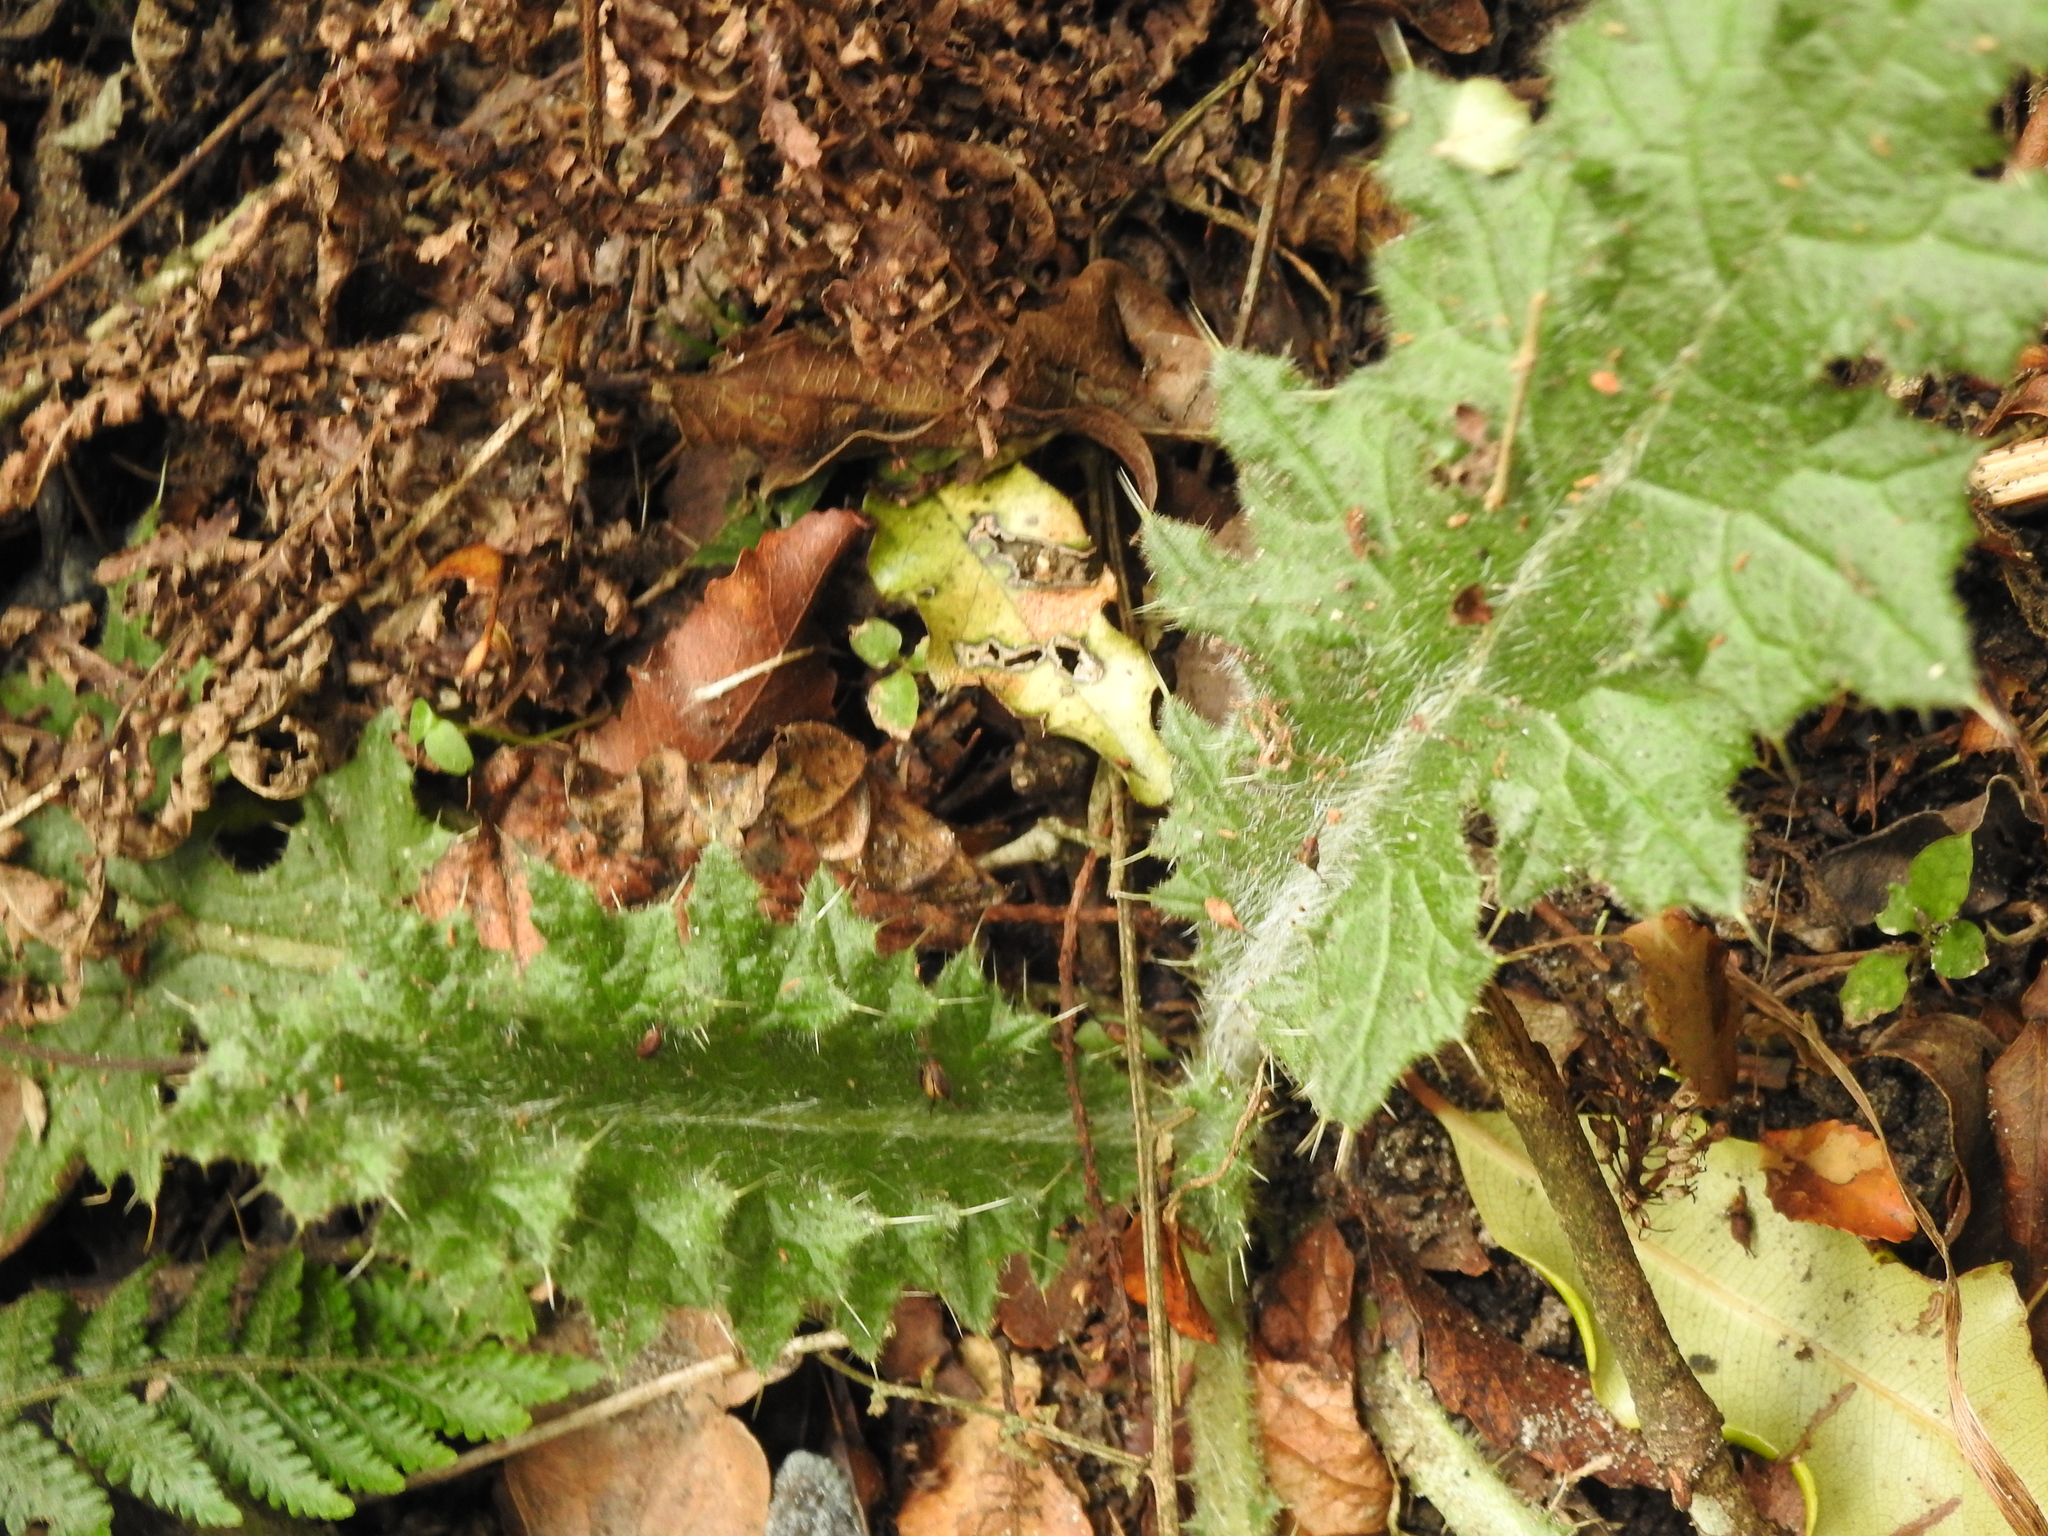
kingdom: Plantae
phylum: Tracheophyta
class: Magnoliopsida
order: Asterales
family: Asteraceae
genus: Cirsium
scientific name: Cirsium vulgare
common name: Bull thistle
